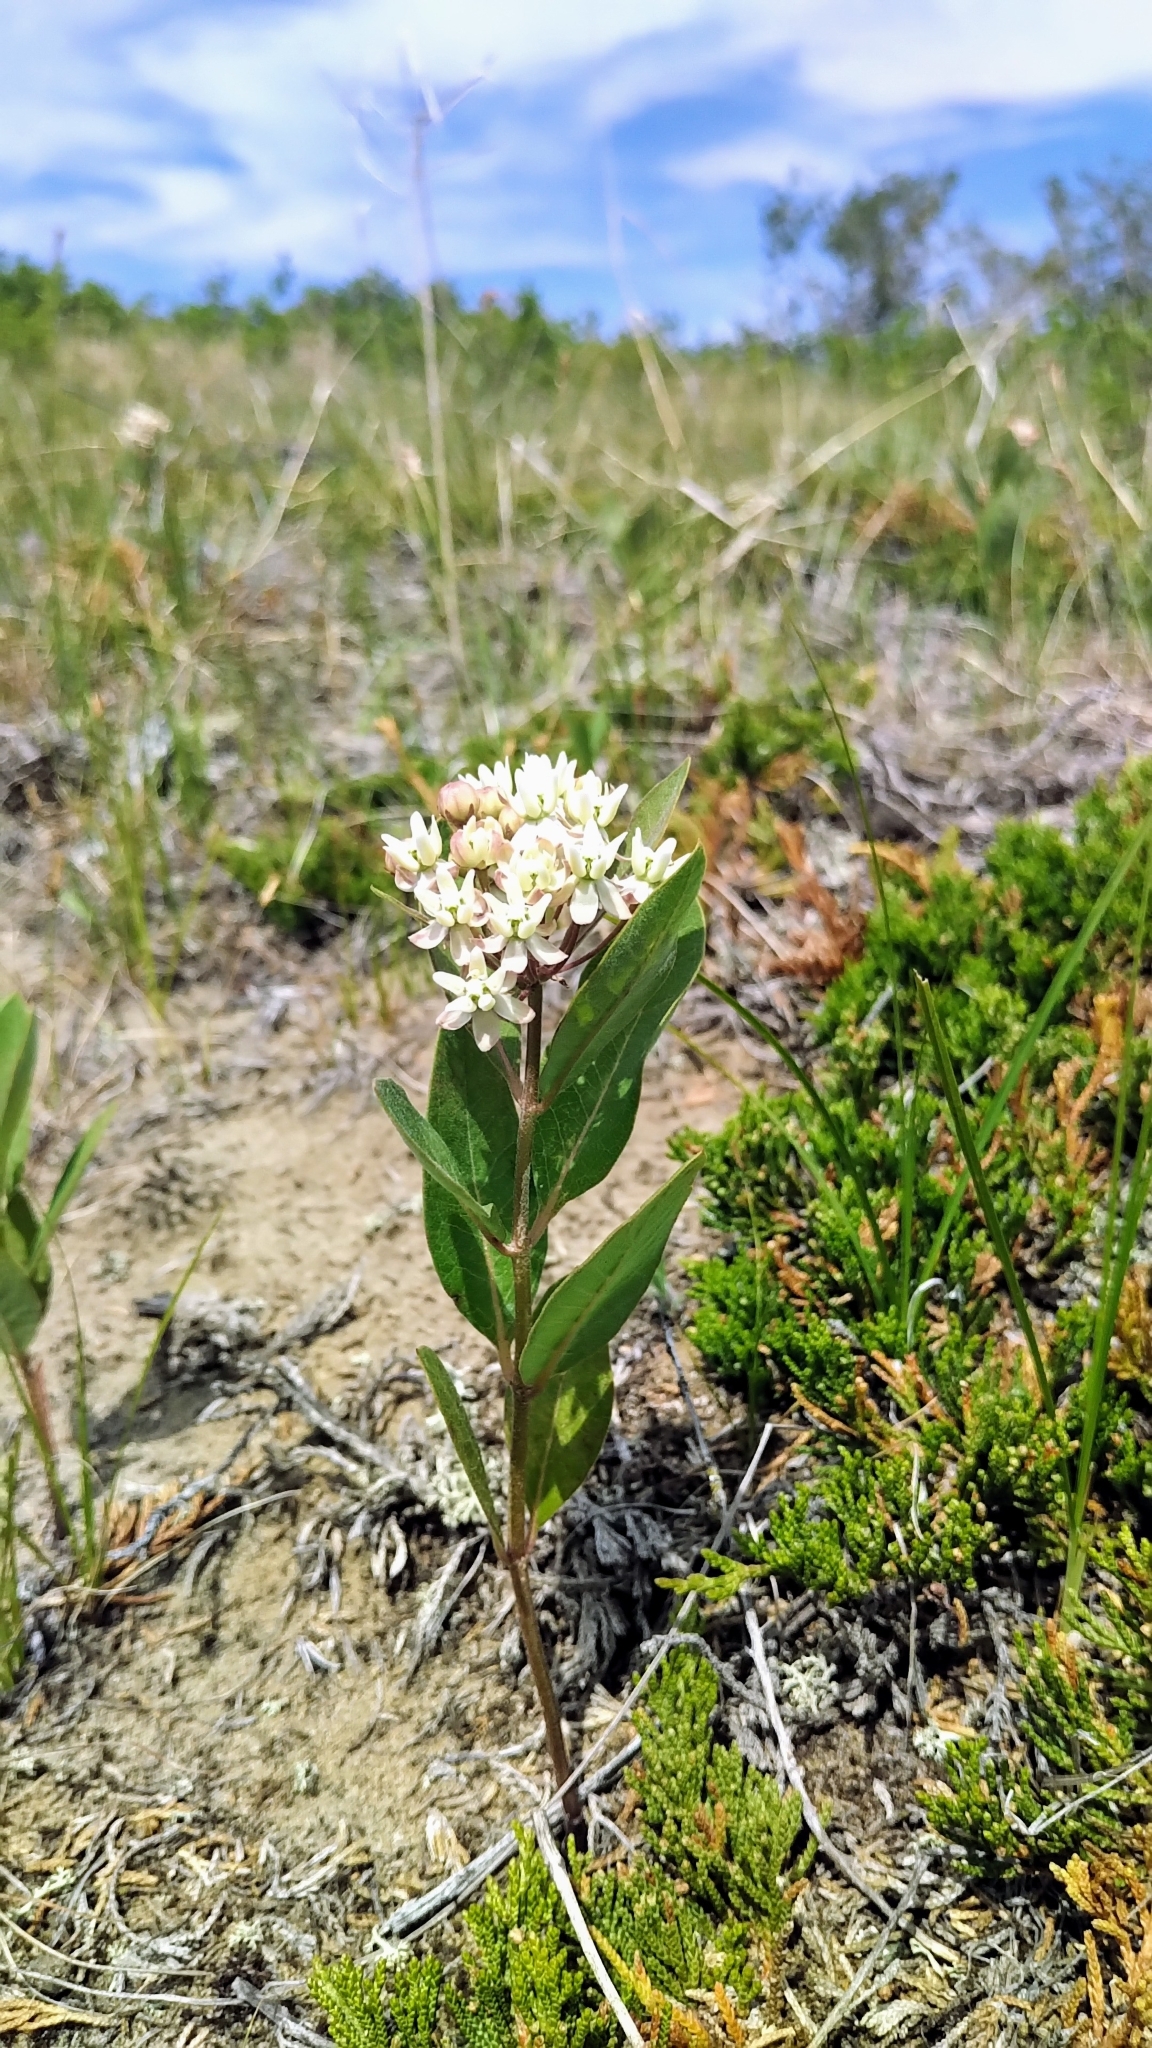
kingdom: Plantae
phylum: Tracheophyta
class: Magnoliopsida
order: Gentianales
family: Apocynaceae
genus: Asclepias
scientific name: Asclepias ovalifolia
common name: Dwarf milkweed
